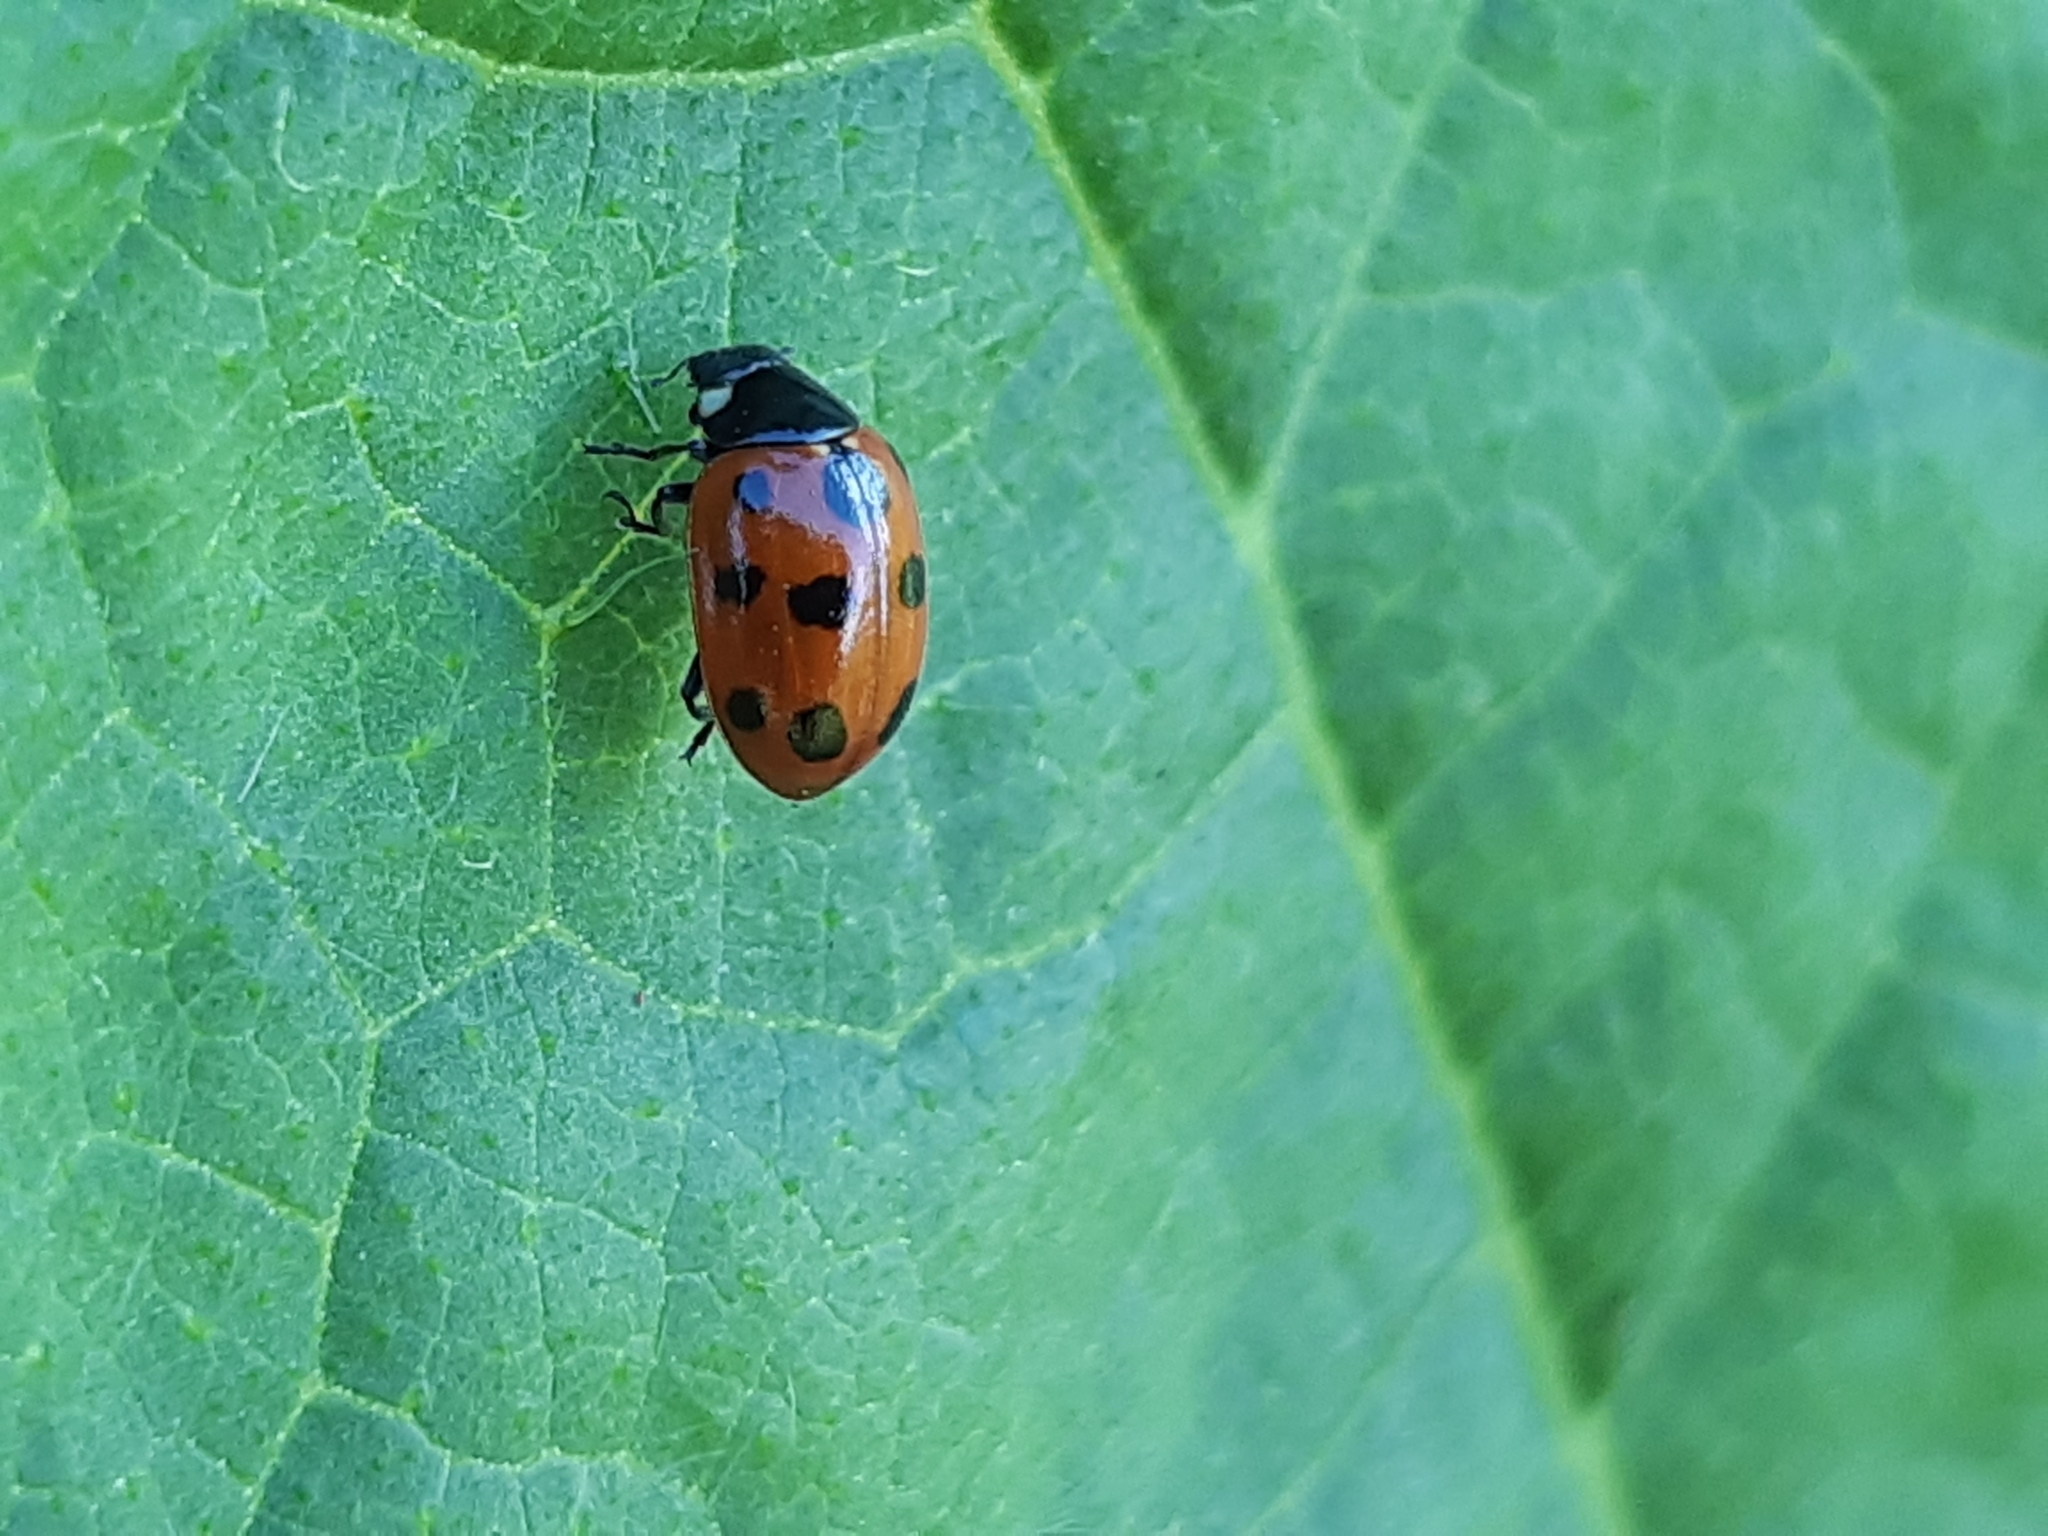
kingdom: Animalia
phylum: Arthropoda
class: Insecta
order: Coleoptera
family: Coccinellidae
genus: Coccinella
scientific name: Coccinella undecimpunctata
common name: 11-spot ladybird
